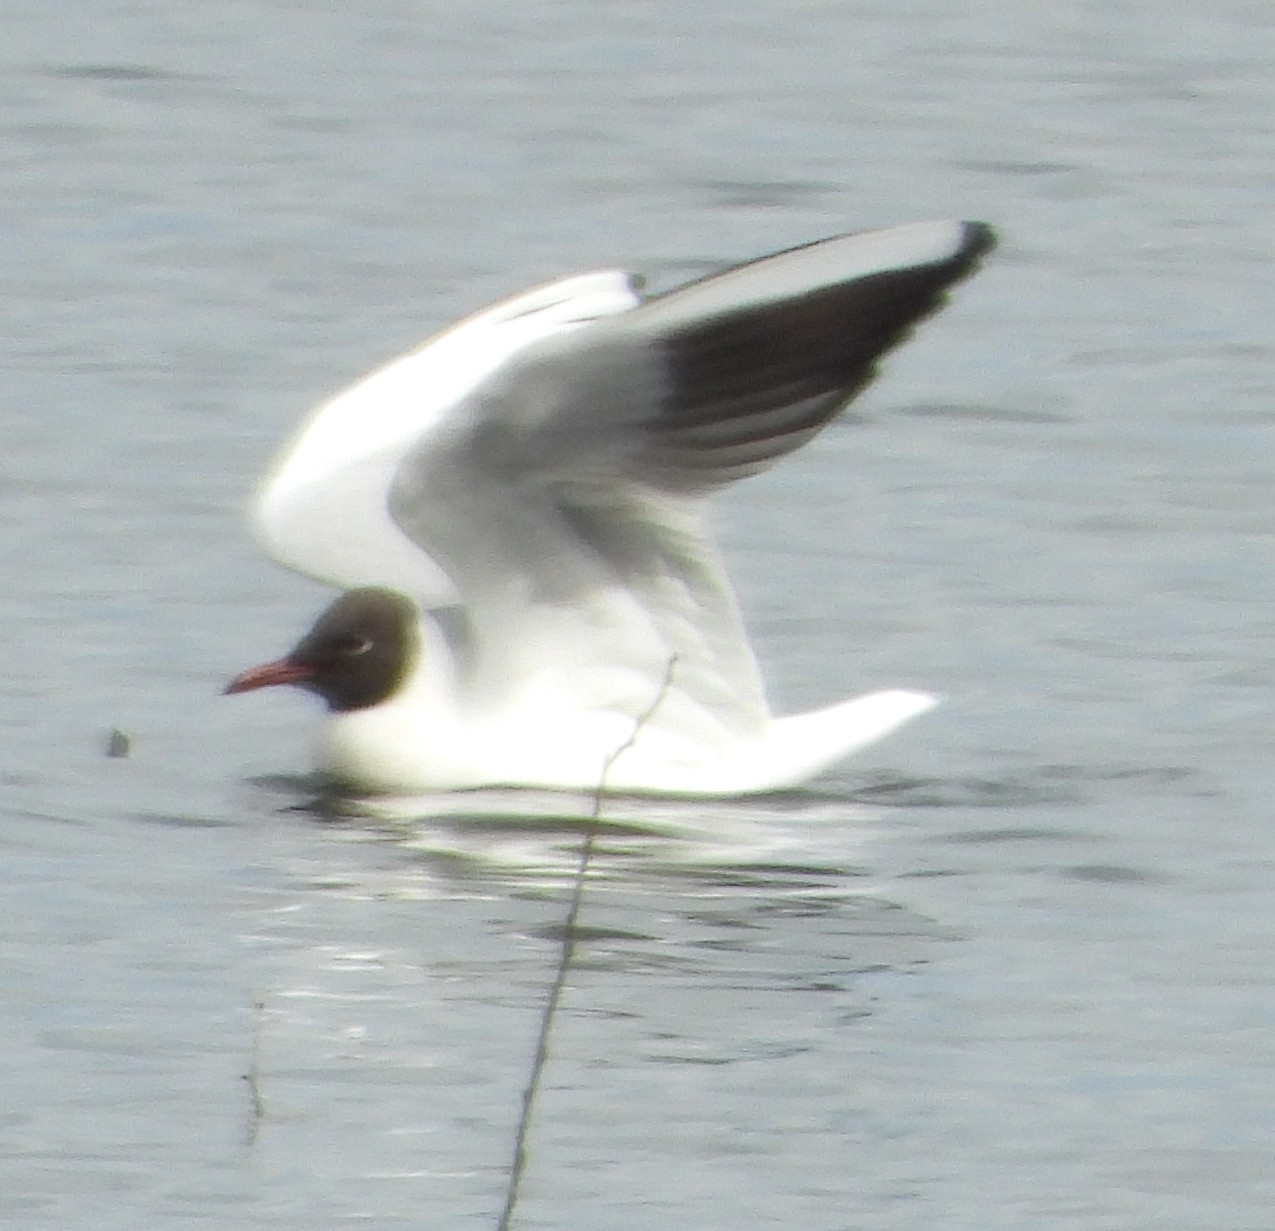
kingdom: Animalia
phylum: Chordata
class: Aves
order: Charadriiformes
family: Laridae
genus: Chroicocephalus
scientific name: Chroicocephalus ridibundus
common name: Black-headed gull
